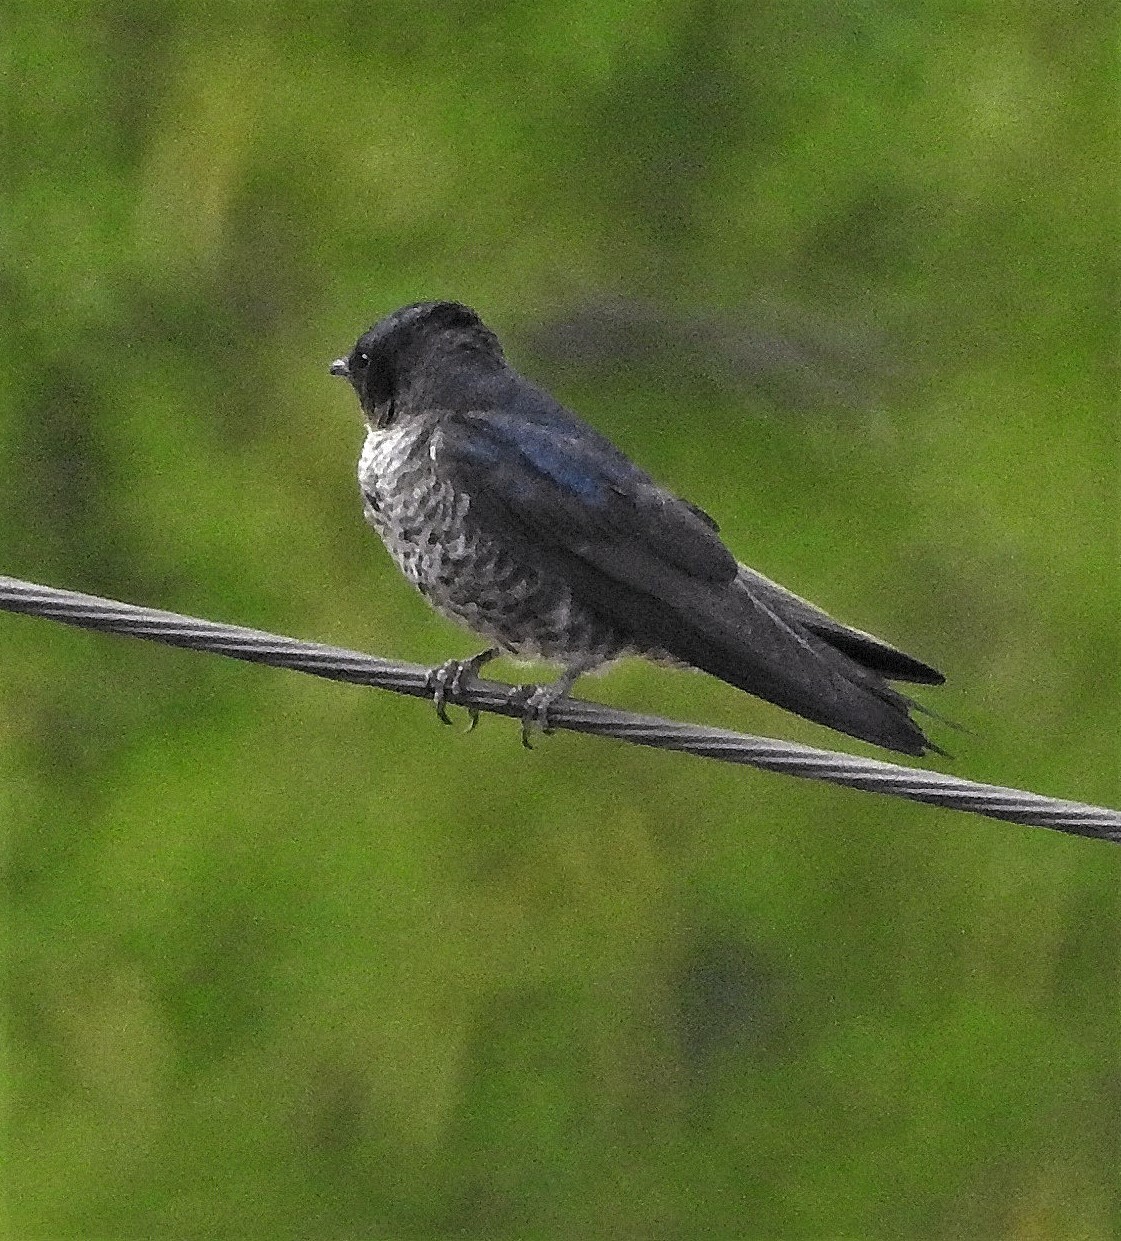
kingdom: Animalia
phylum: Chordata
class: Aves
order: Passeriformes
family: Hirundinidae
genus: Progne
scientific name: Progne elegans
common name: Southern martin
